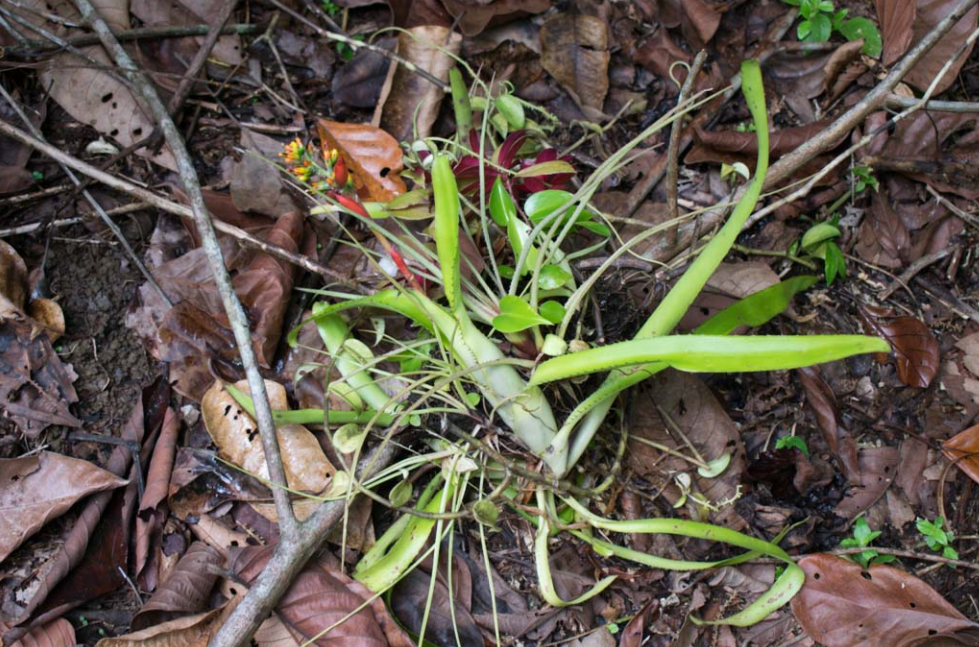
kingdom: Plantae
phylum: Tracheophyta
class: Liliopsida
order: Poales
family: Bromeliaceae
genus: Aechmea
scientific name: Aechmea mertensii
